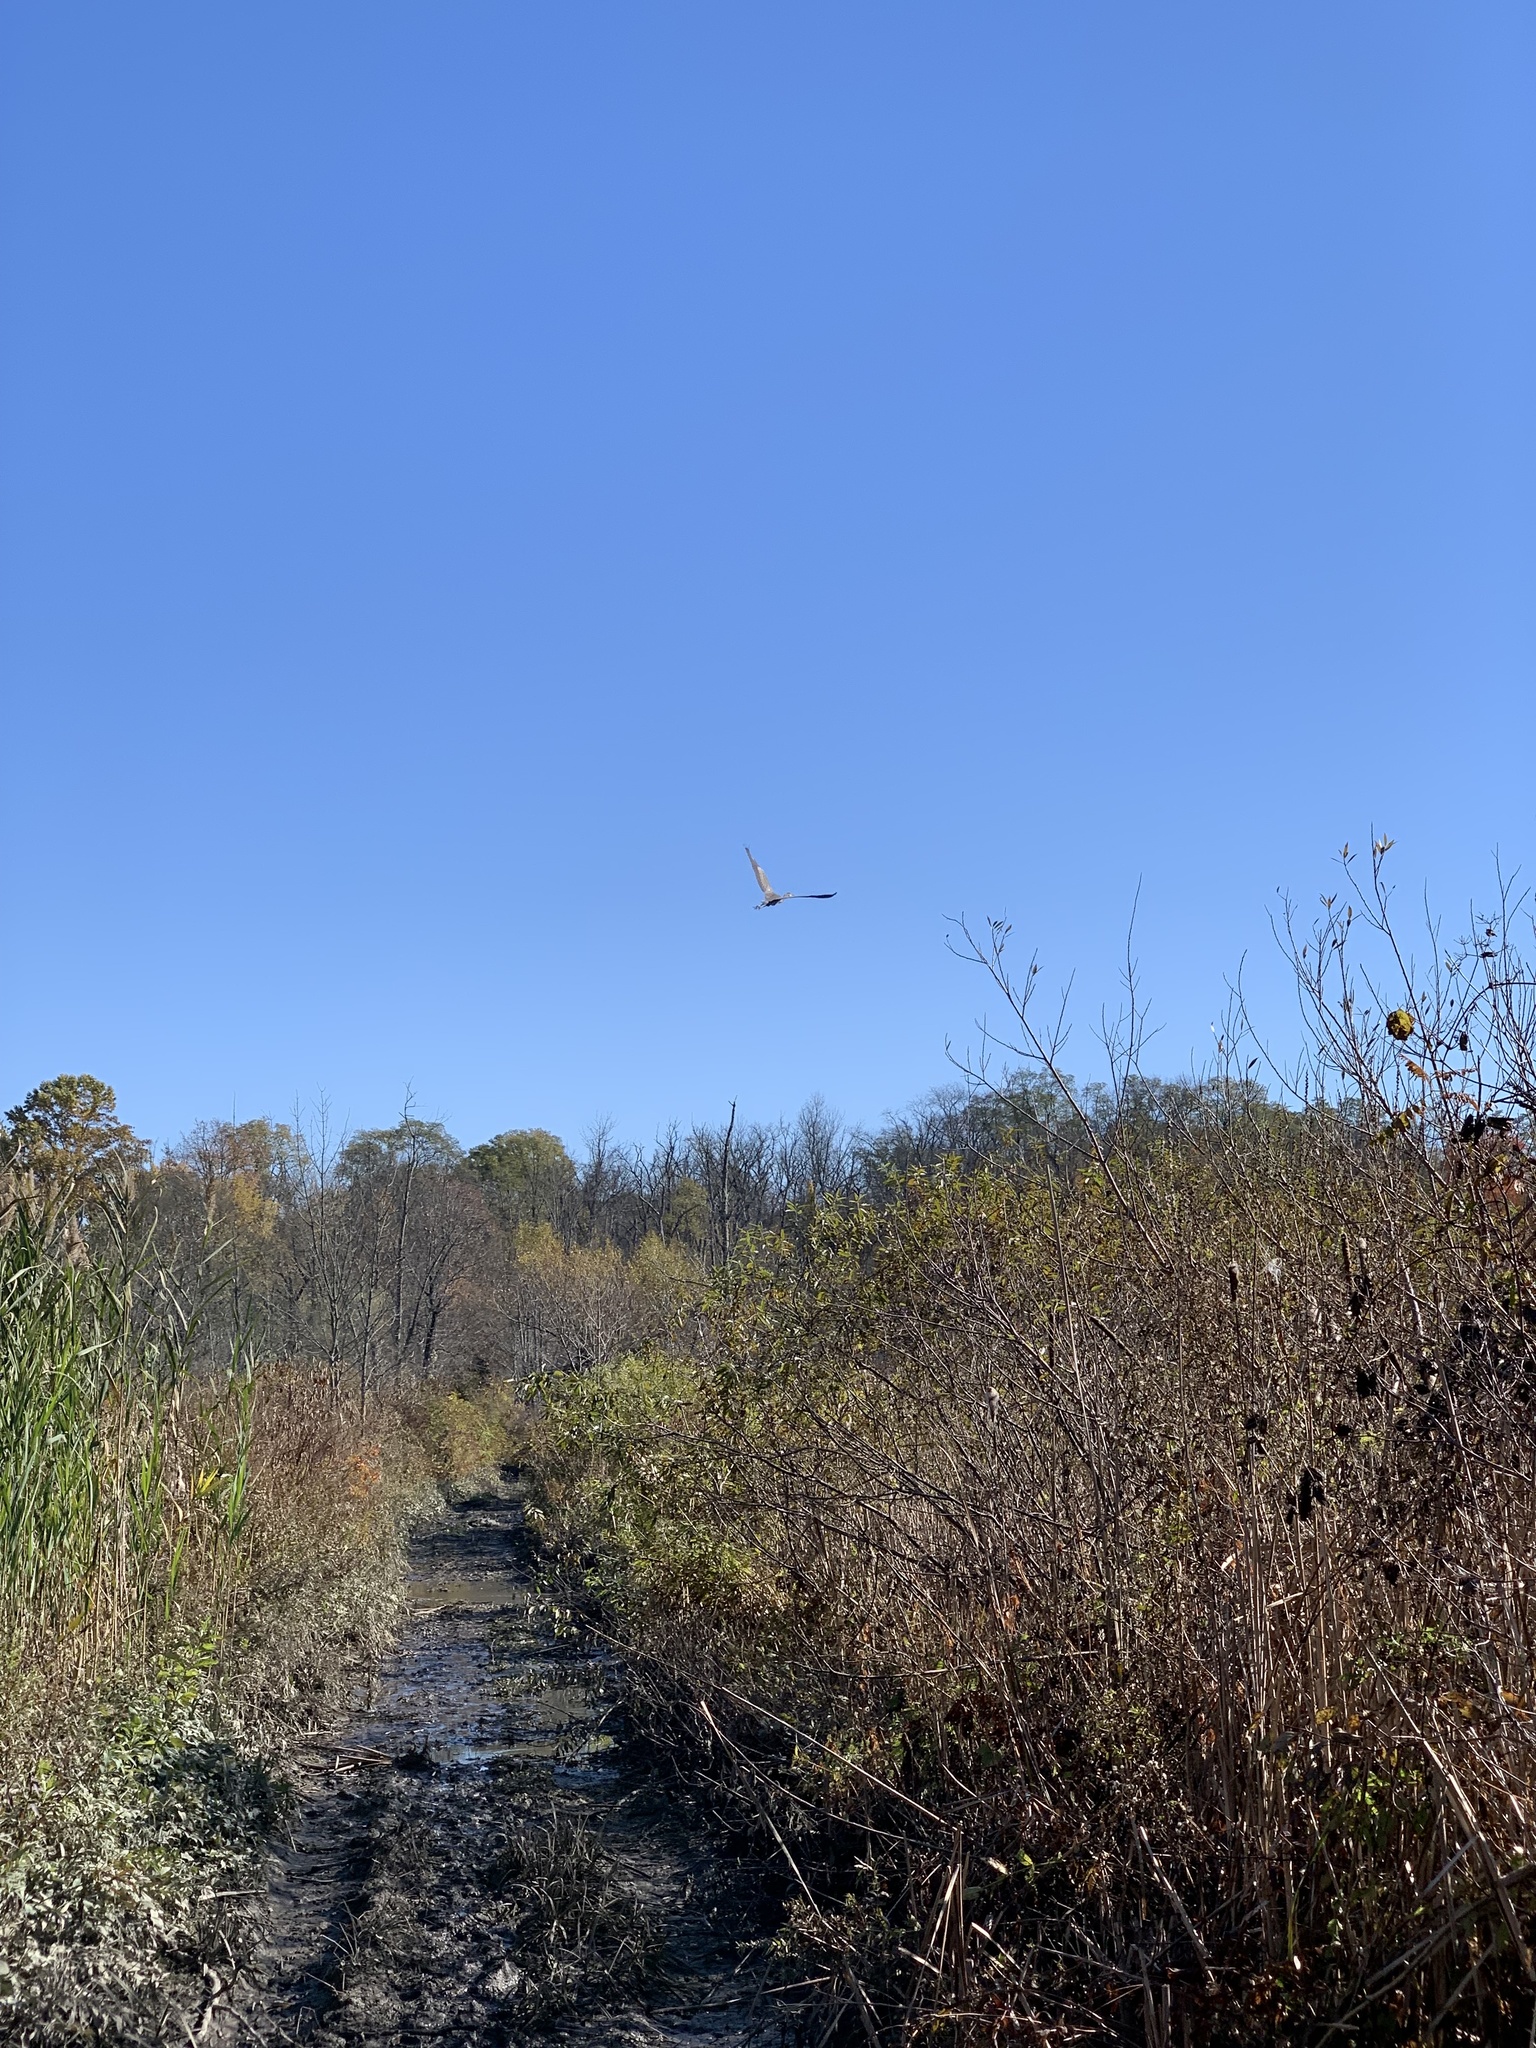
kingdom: Animalia
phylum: Chordata
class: Aves
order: Pelecaniformes
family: Ardeidae
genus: Ardea
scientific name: Ardea herodias
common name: Great blue heron
